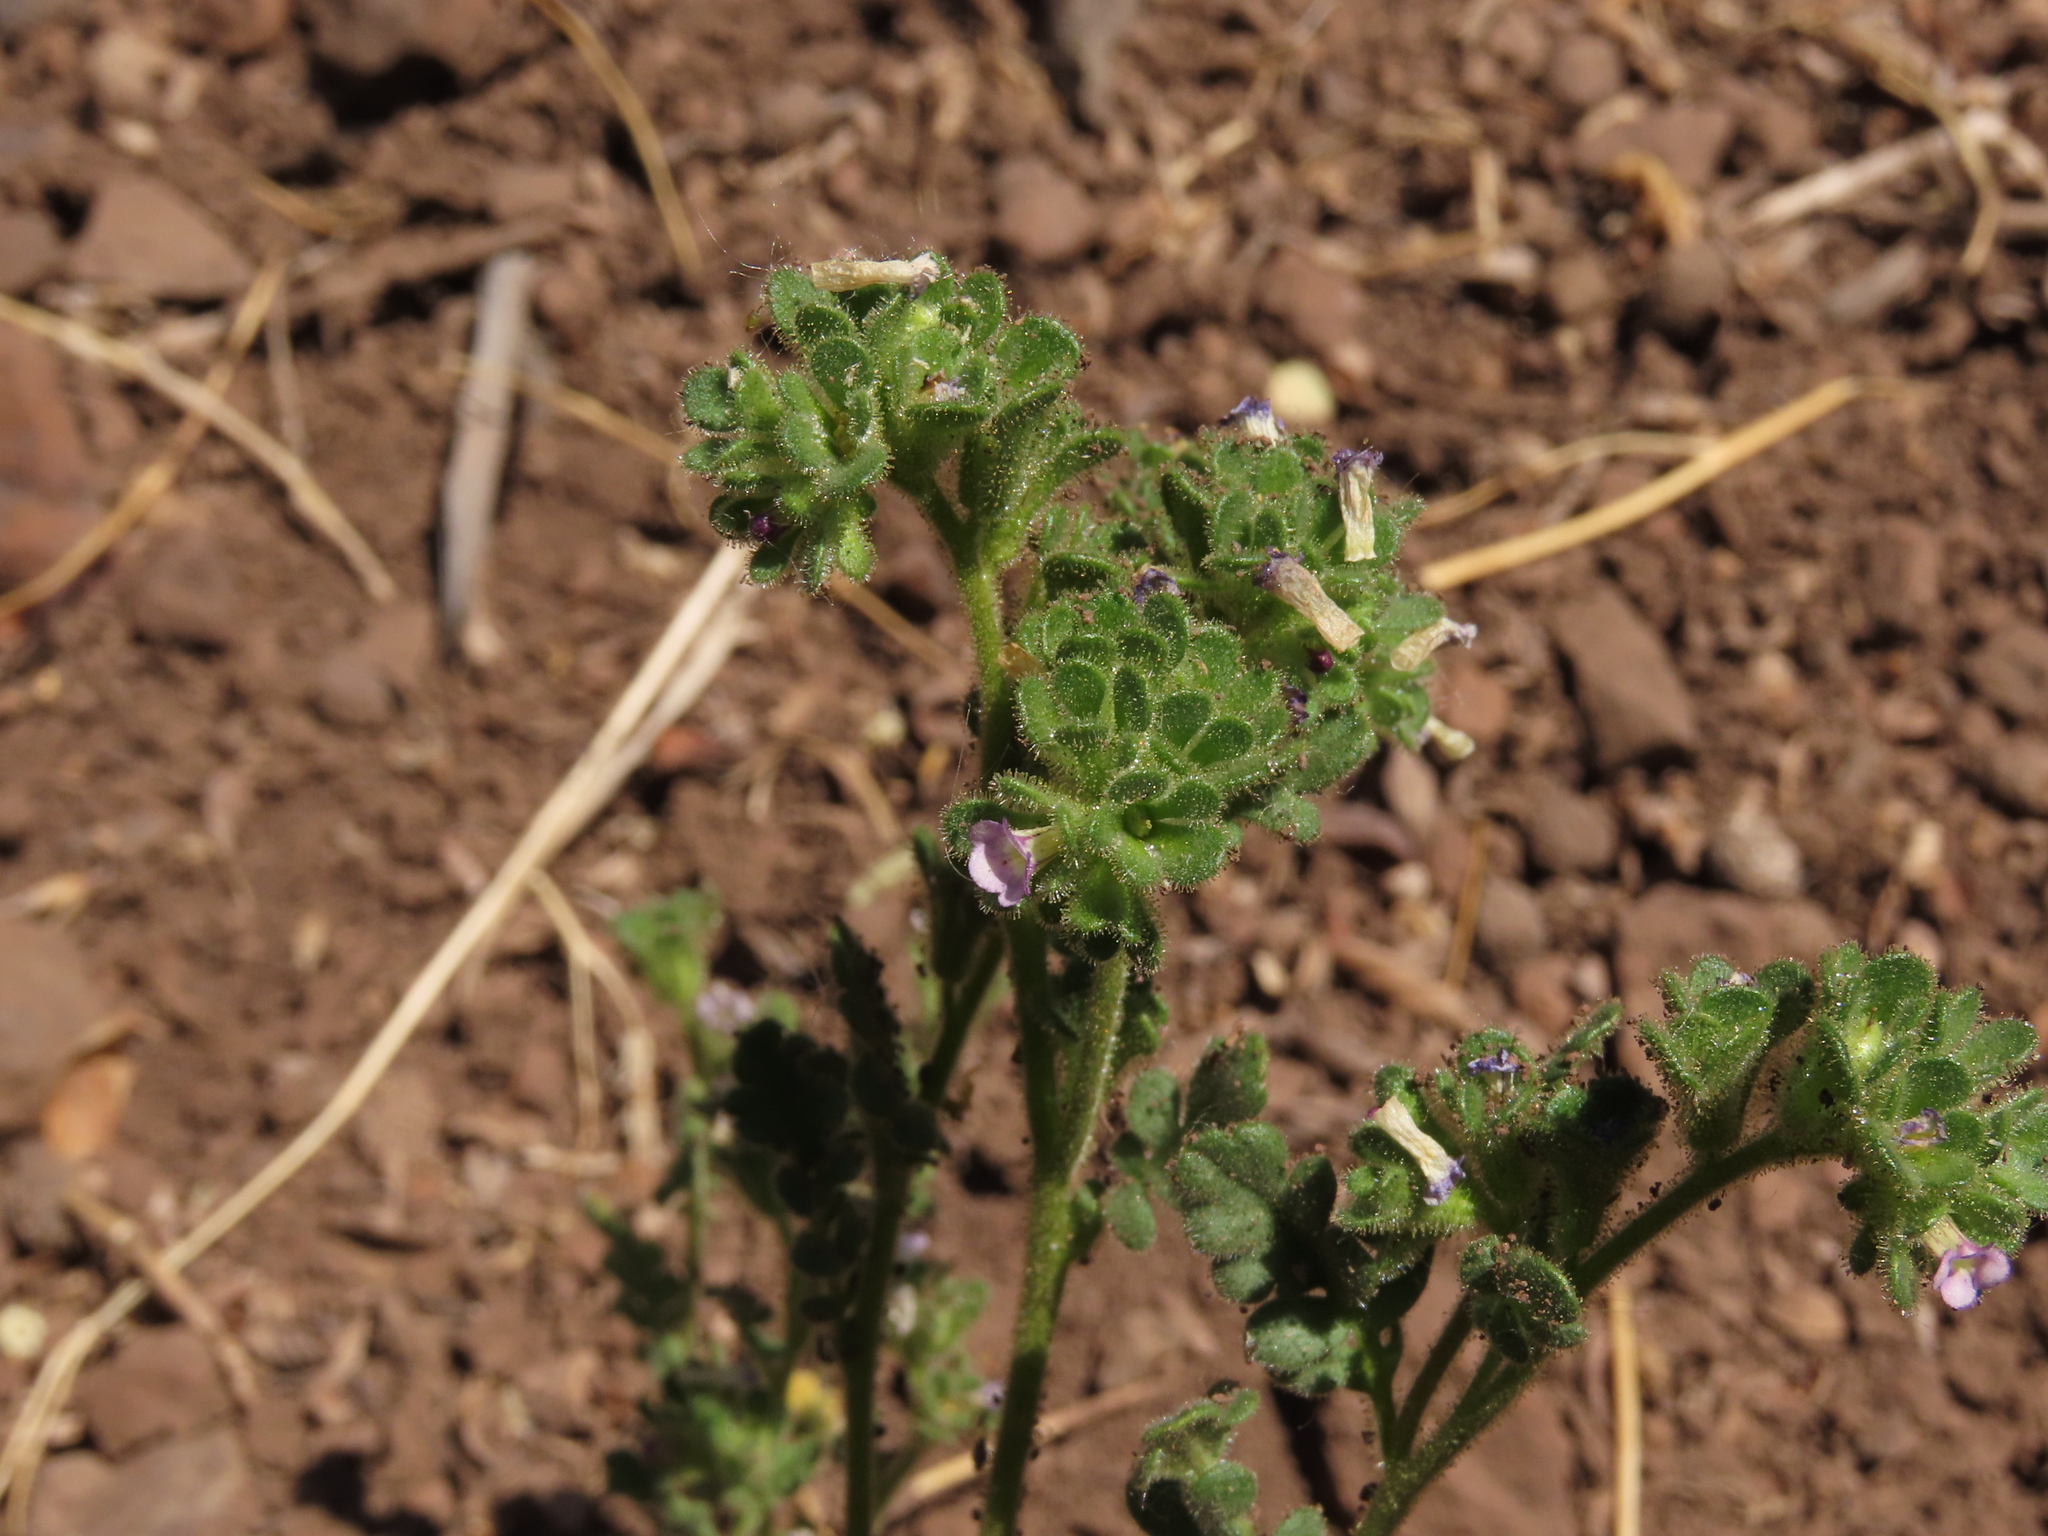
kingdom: Plantae
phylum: Tracheophyta
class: Magnoliopsida
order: Boraginales
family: Hydrophyllaceae
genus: Phacelia
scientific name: Phacelia cumingii
